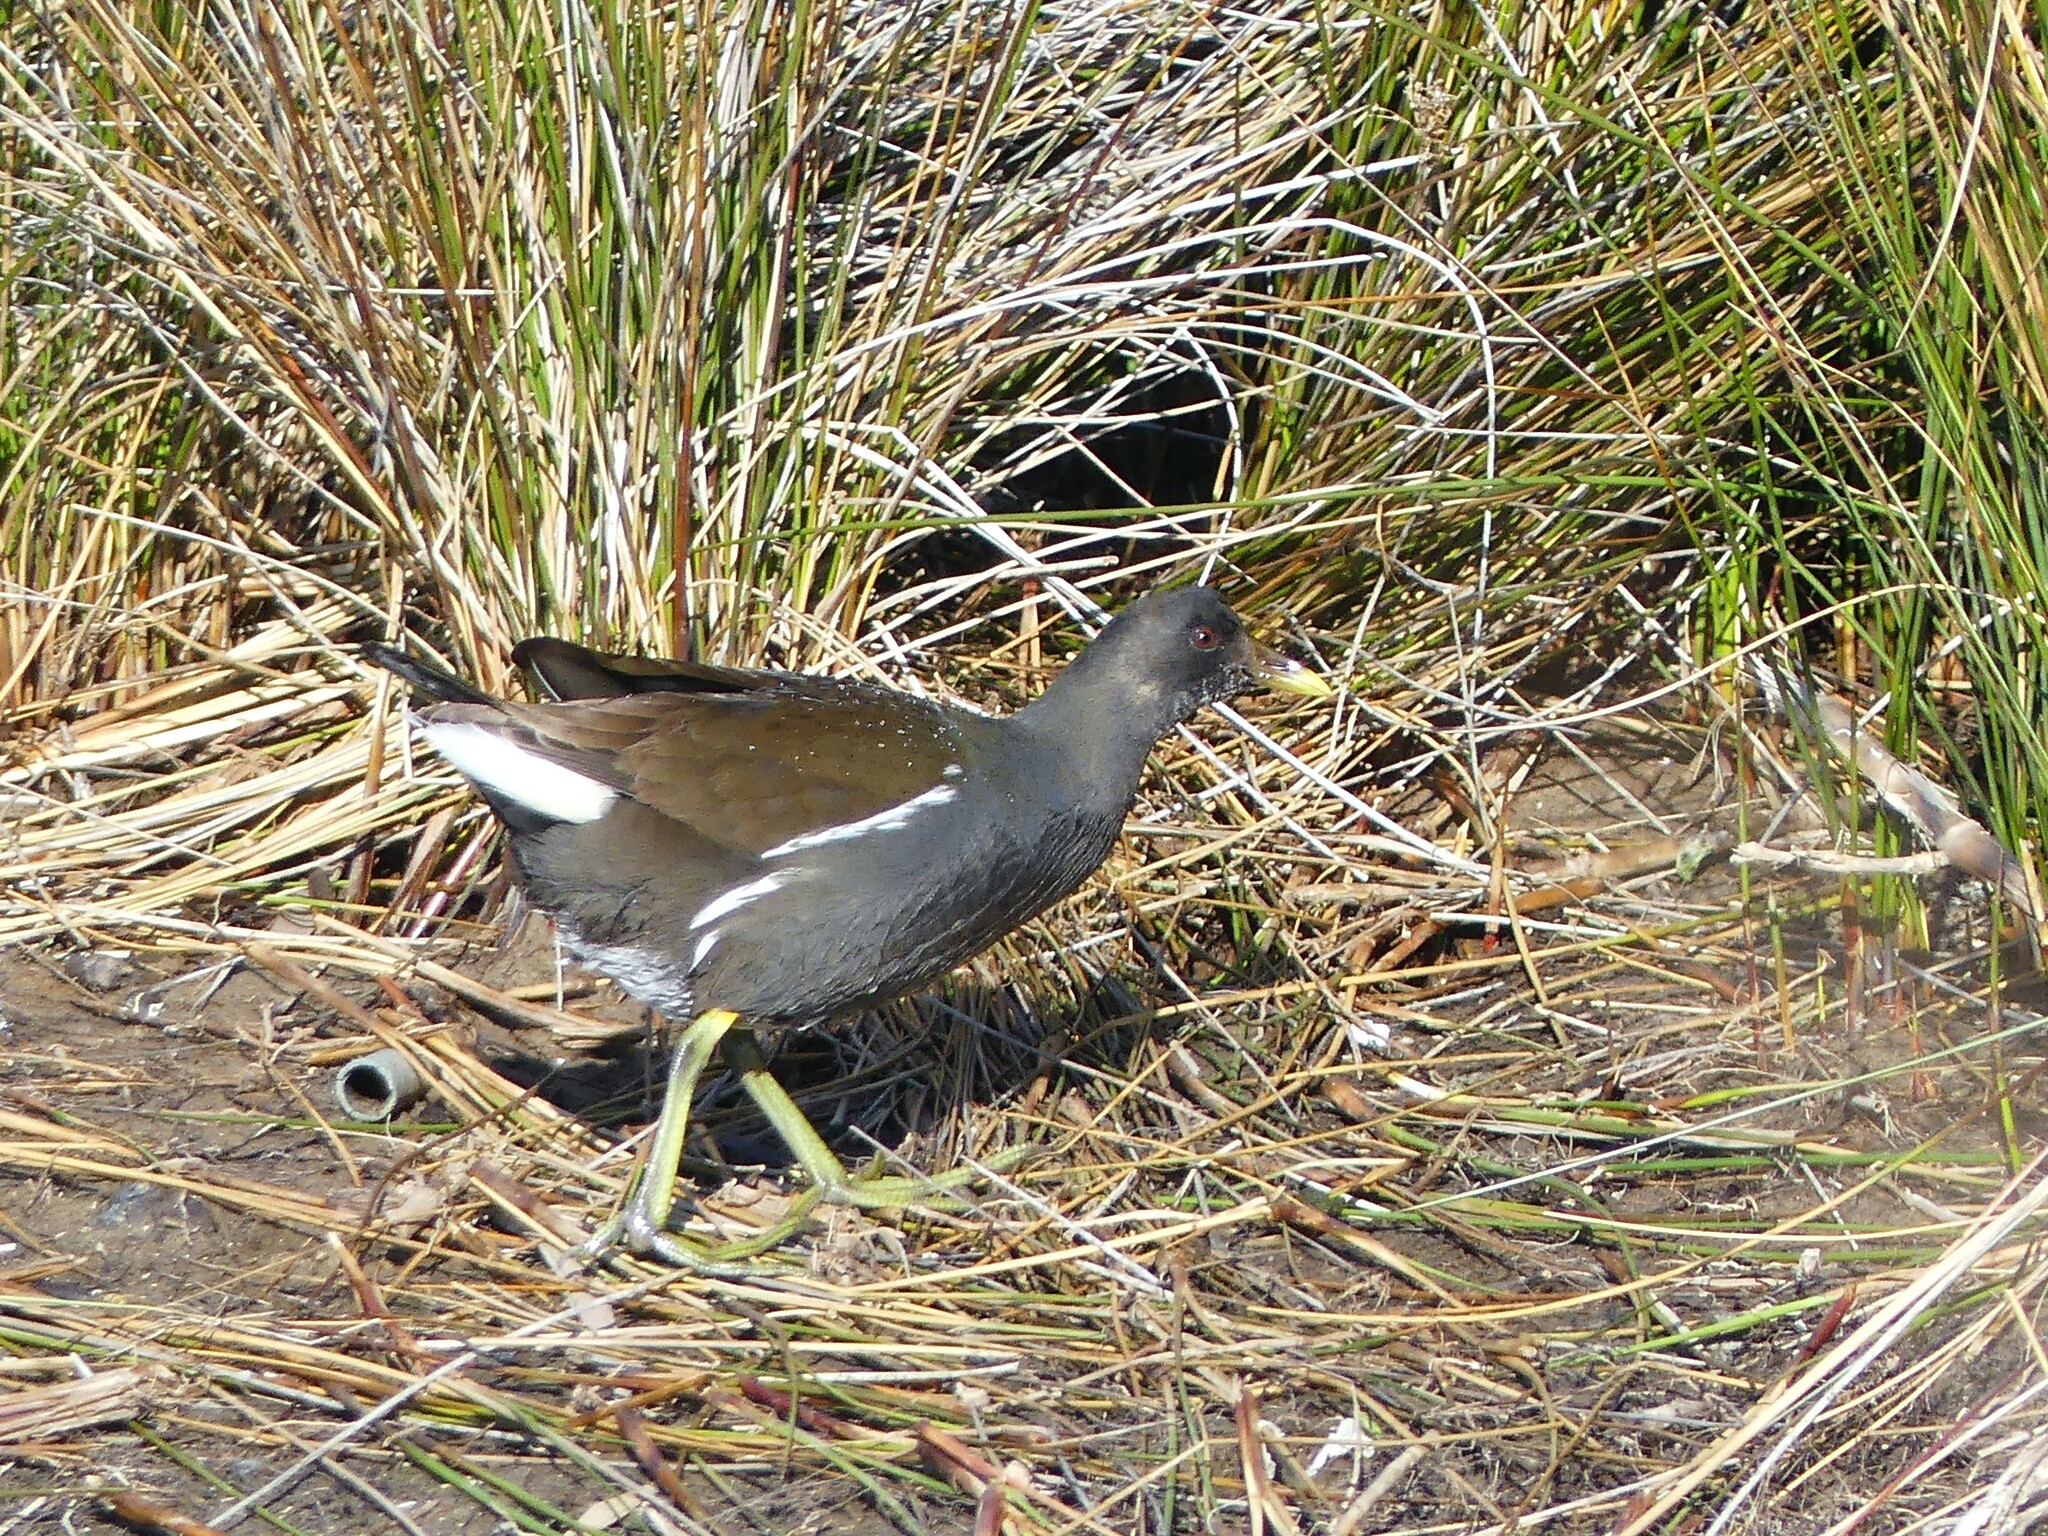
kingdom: Animalia
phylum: Chordata
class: Aves
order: Gruiformes
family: Rallidae
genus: Gallinula
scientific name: Gallinula chloropus
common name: Common moorhen
